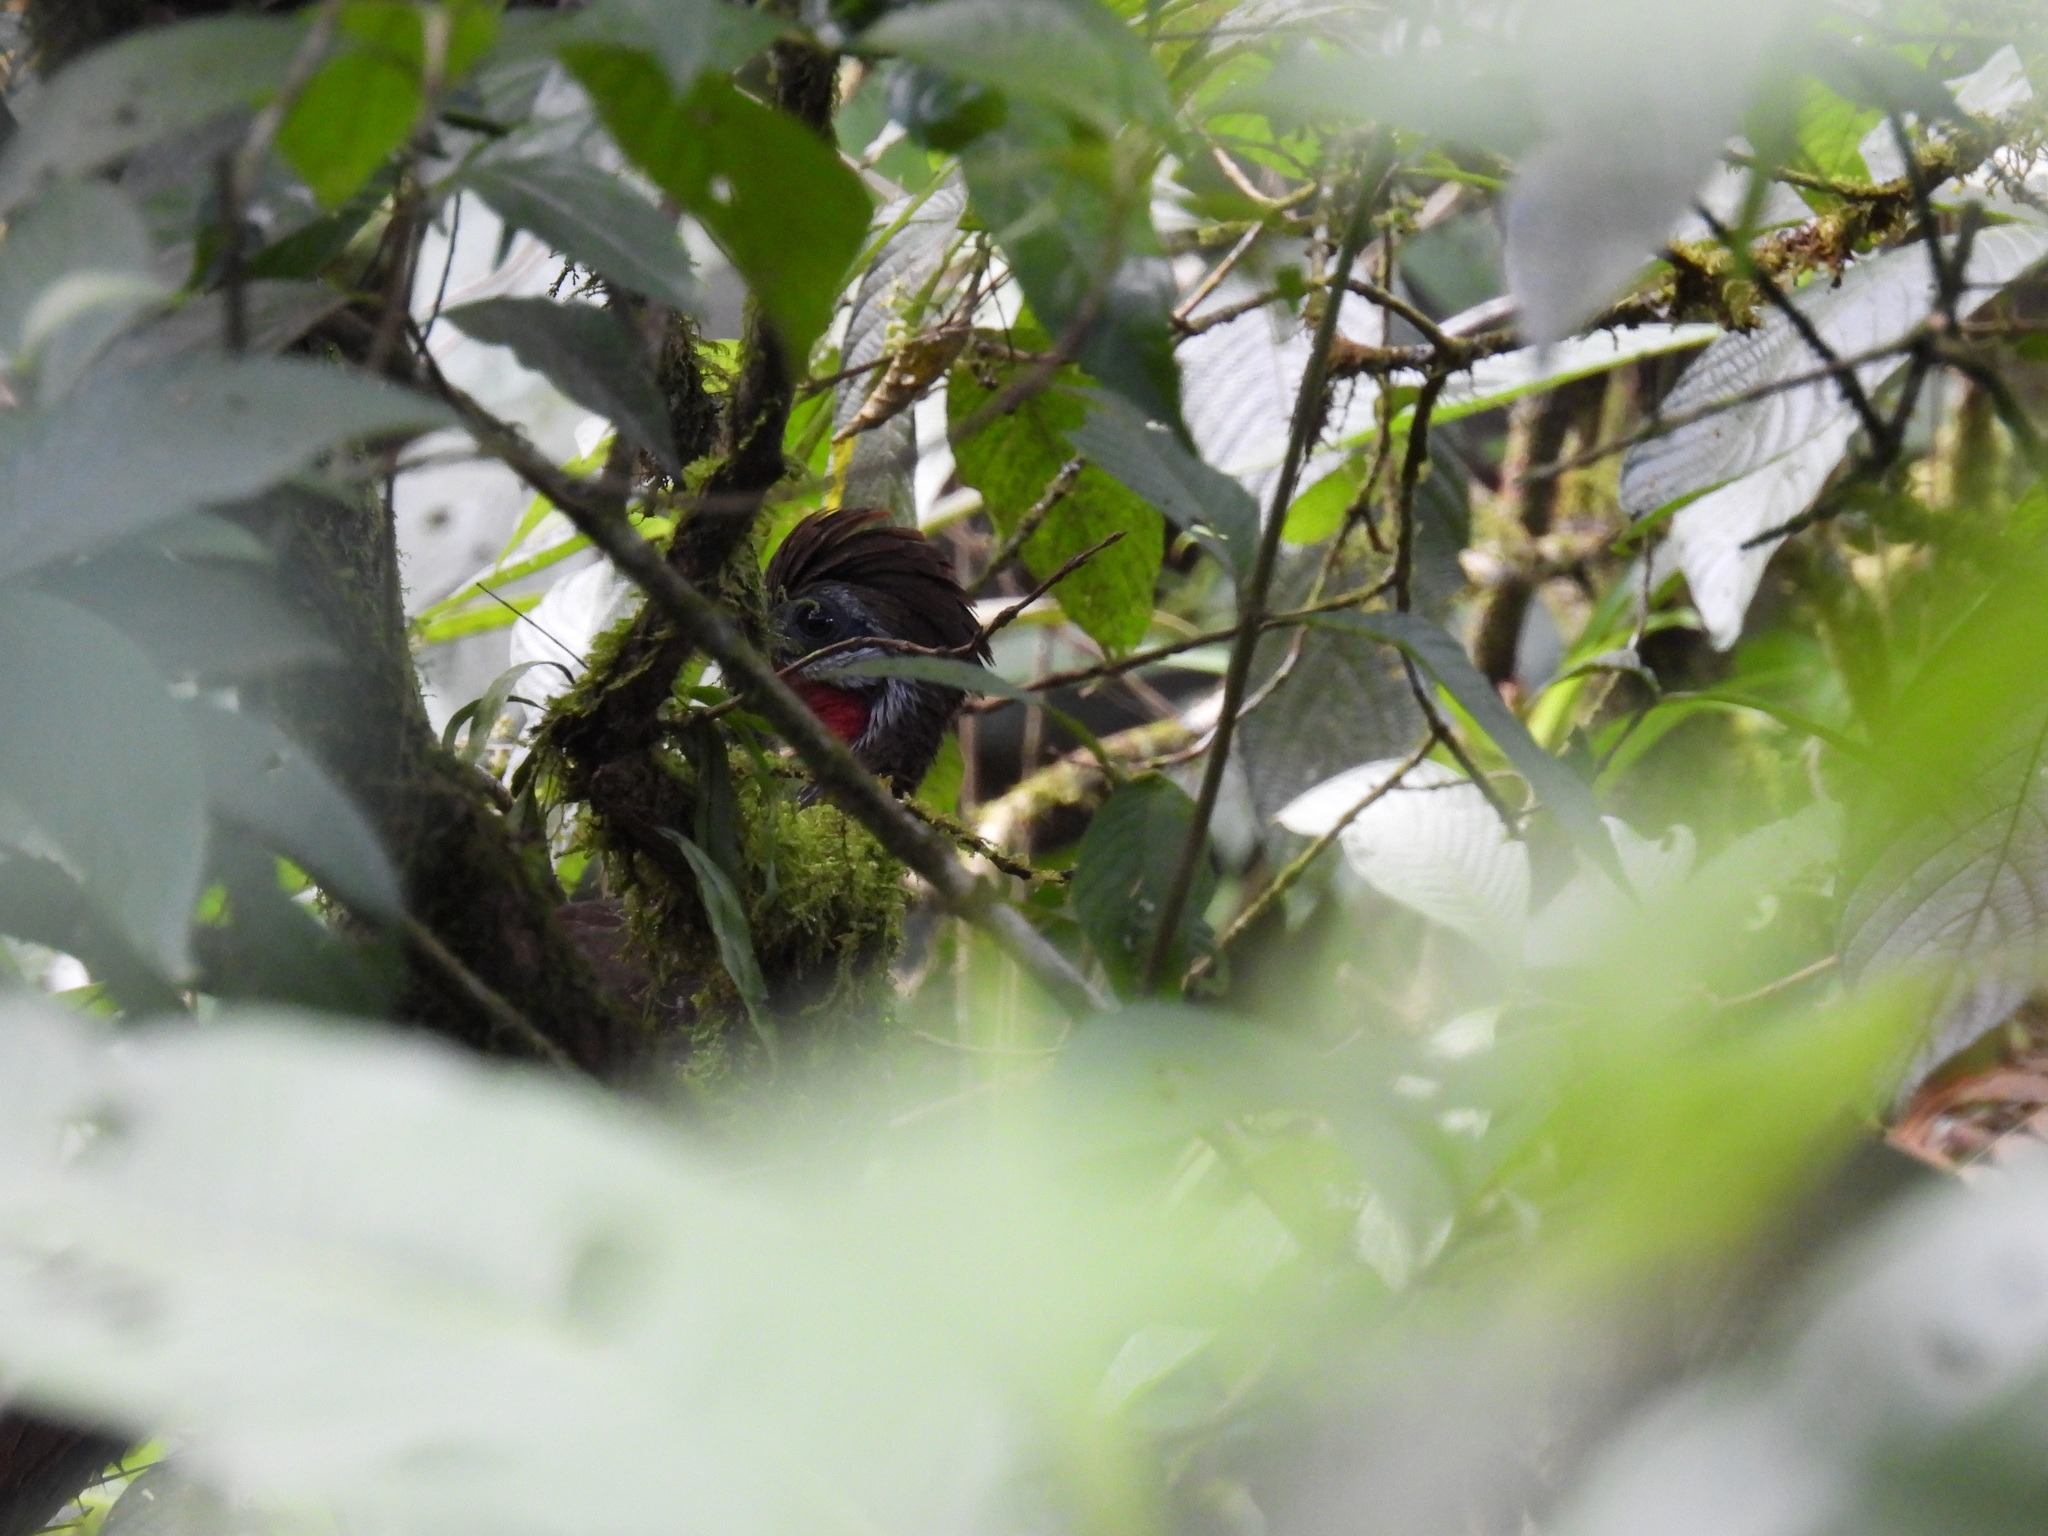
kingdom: Animalia
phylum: Chordata
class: Aves
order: Galliformes
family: Cracidae
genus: Penelope
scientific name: Penelope argyrotis
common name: Band-tailed guan
